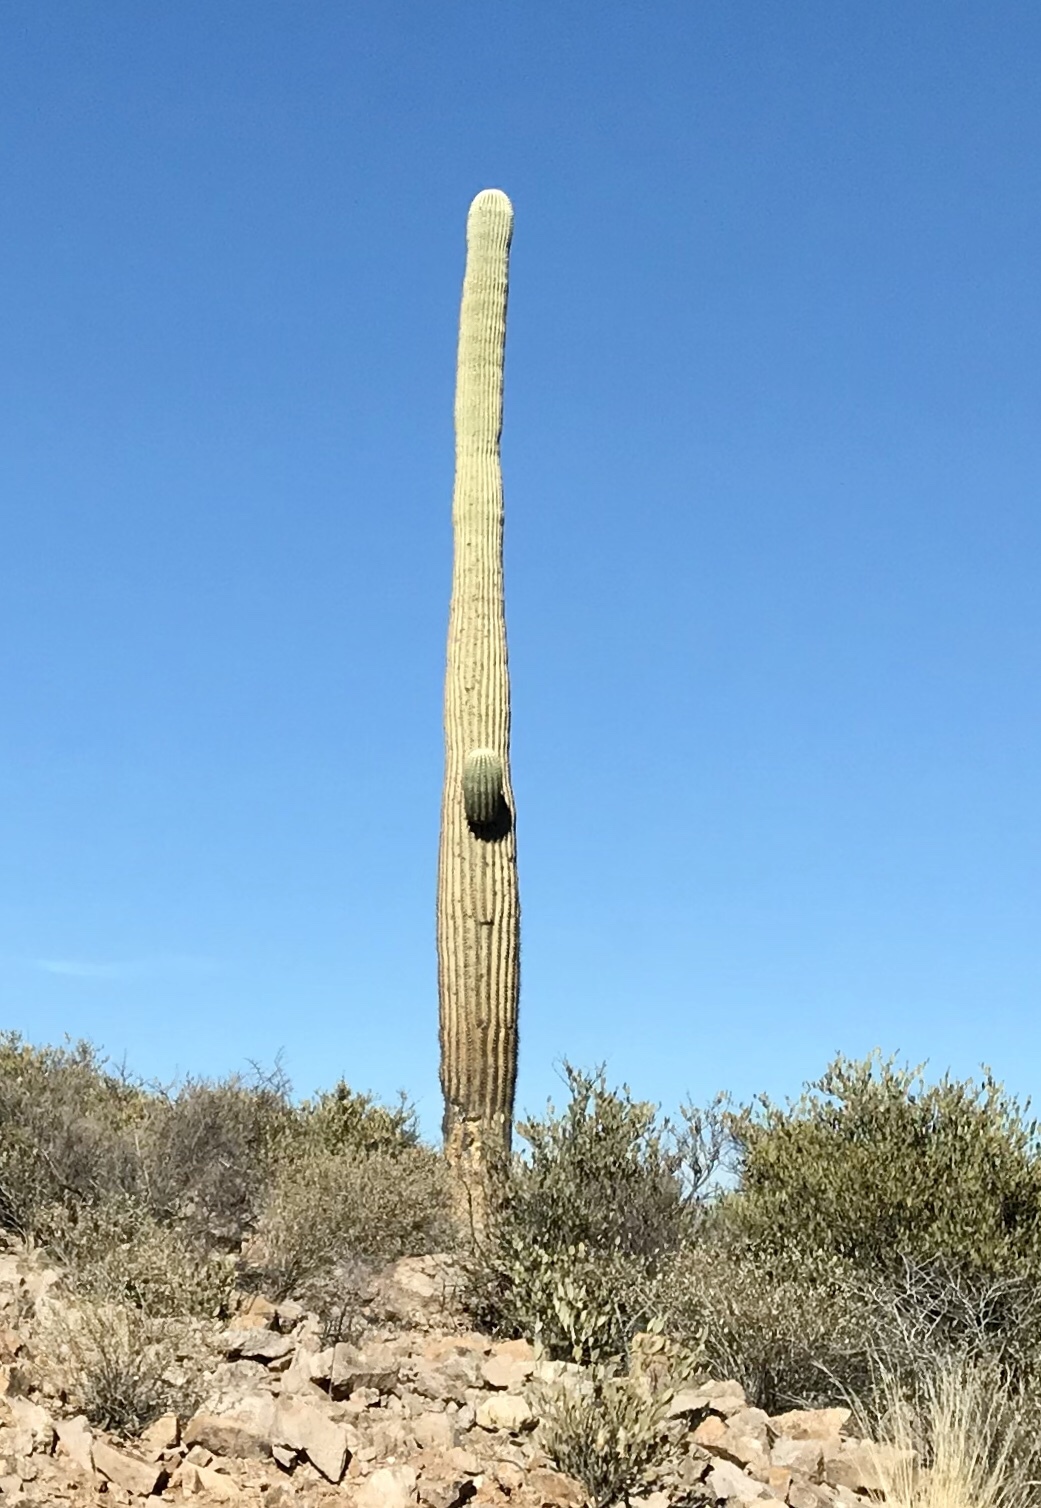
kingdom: Plantae
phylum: Tracheophyta
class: Magnoliopsida
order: Caryophyllales
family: Cactaceae
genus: Carnegiea
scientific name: Carnegiea gigantea
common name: Saguaro
